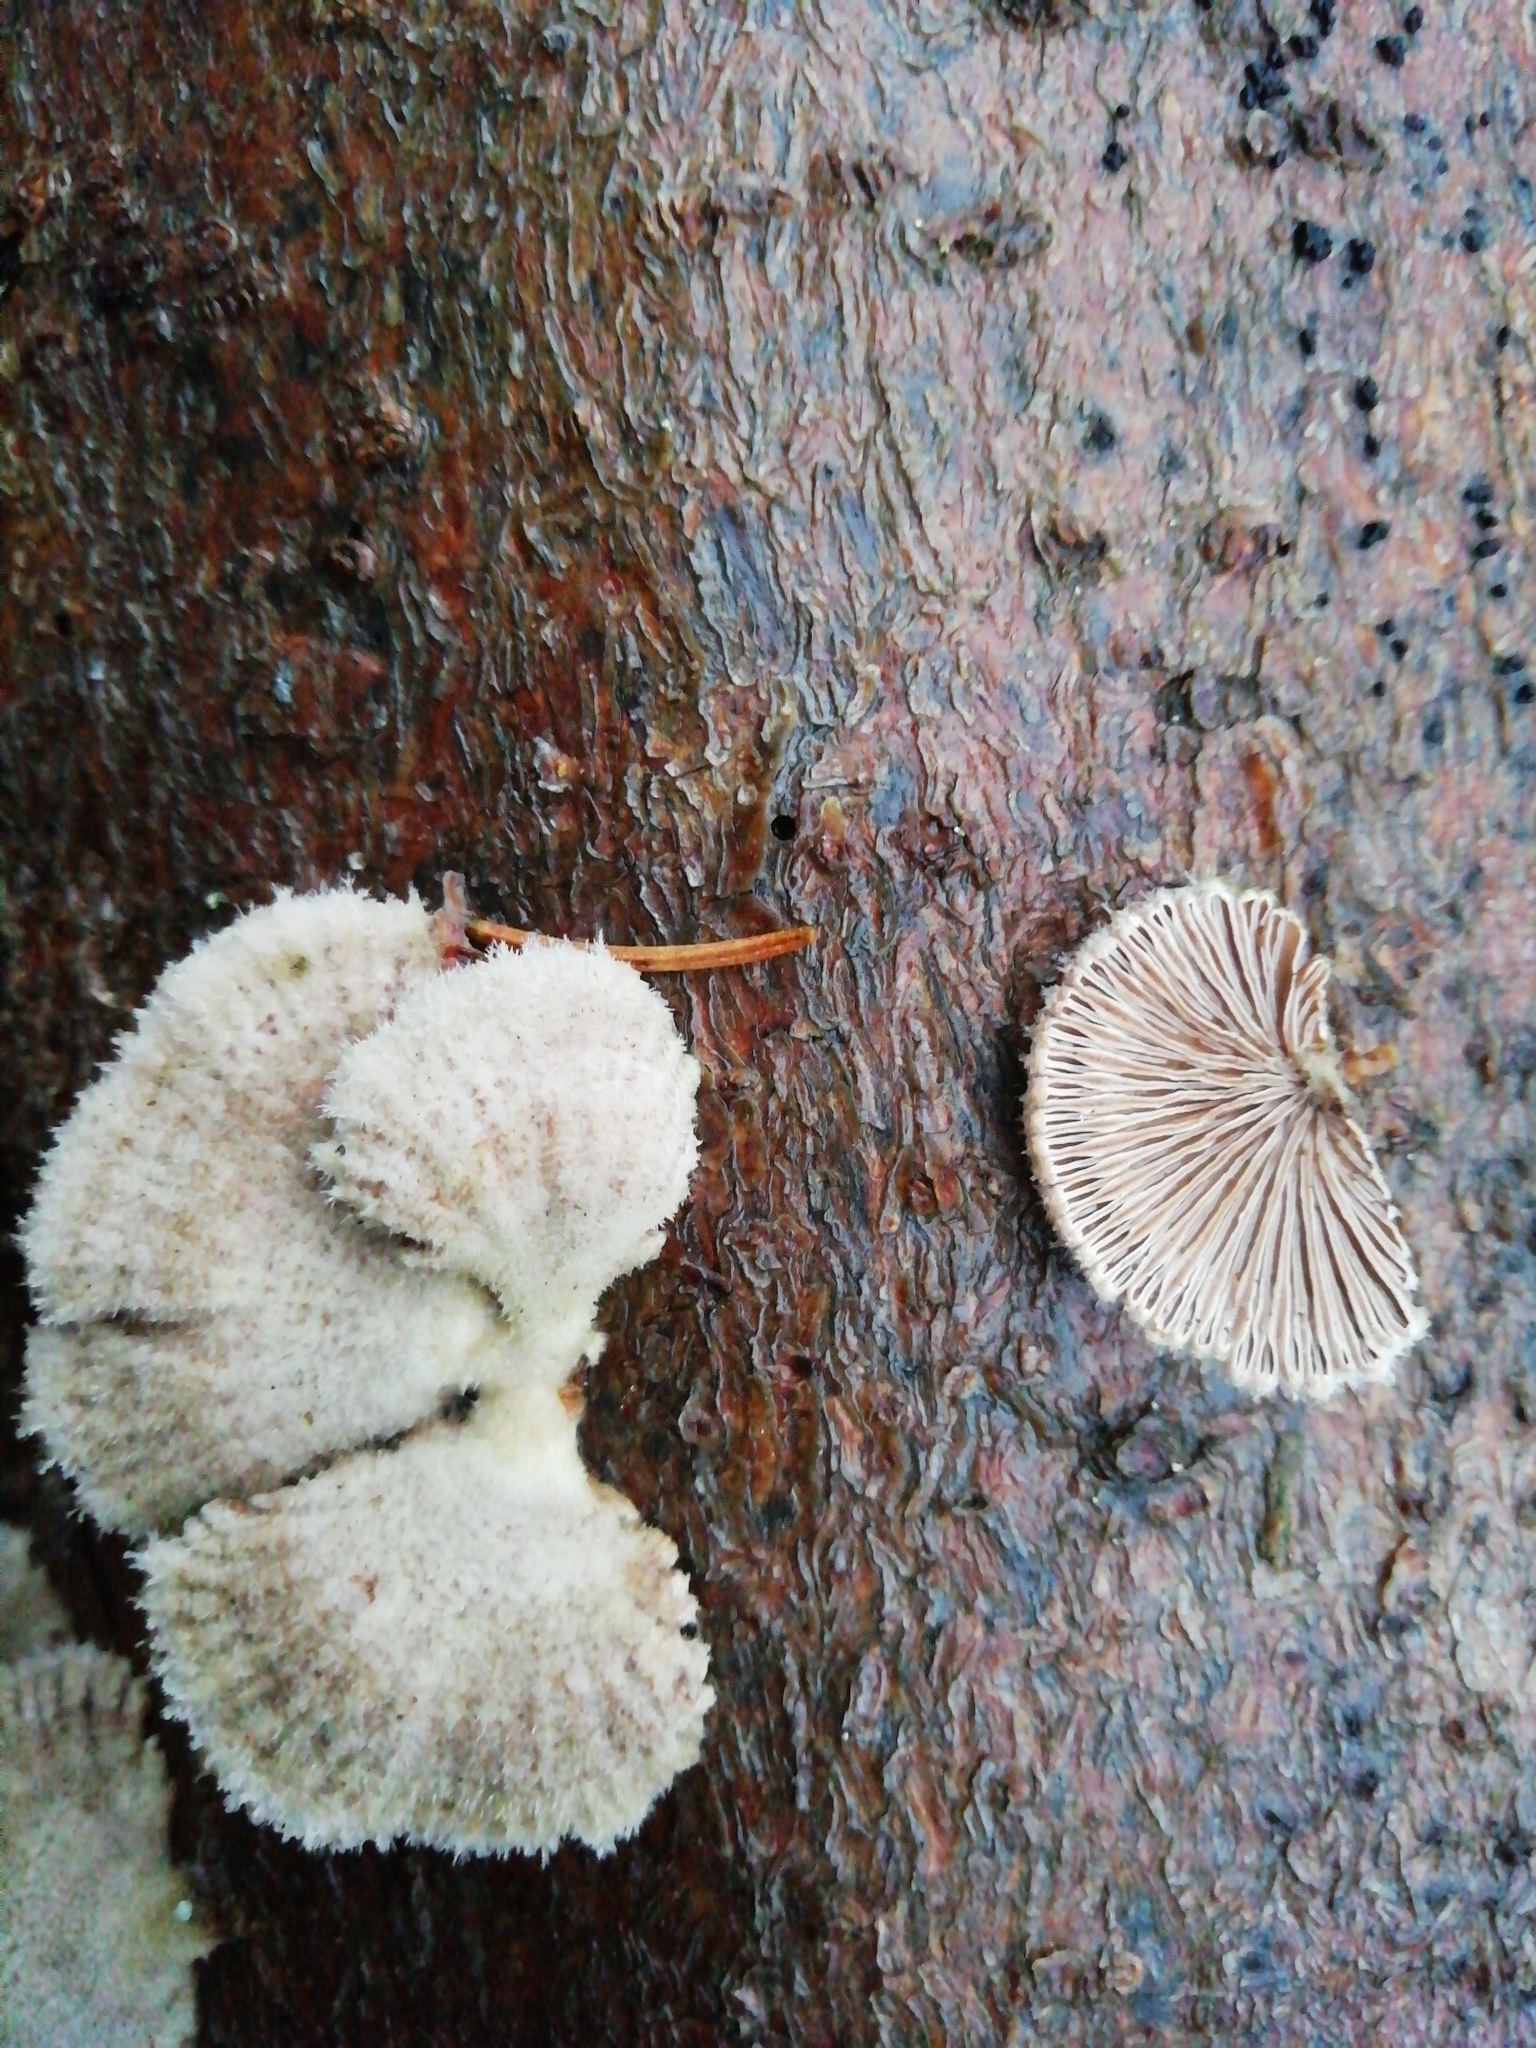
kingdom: Fungi
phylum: Basidiomycota
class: Agaricomycetes
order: Agaricales
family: Schizophyllaceae
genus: Schizophyllum
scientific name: Schizophyllum commune
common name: Common porecrust
